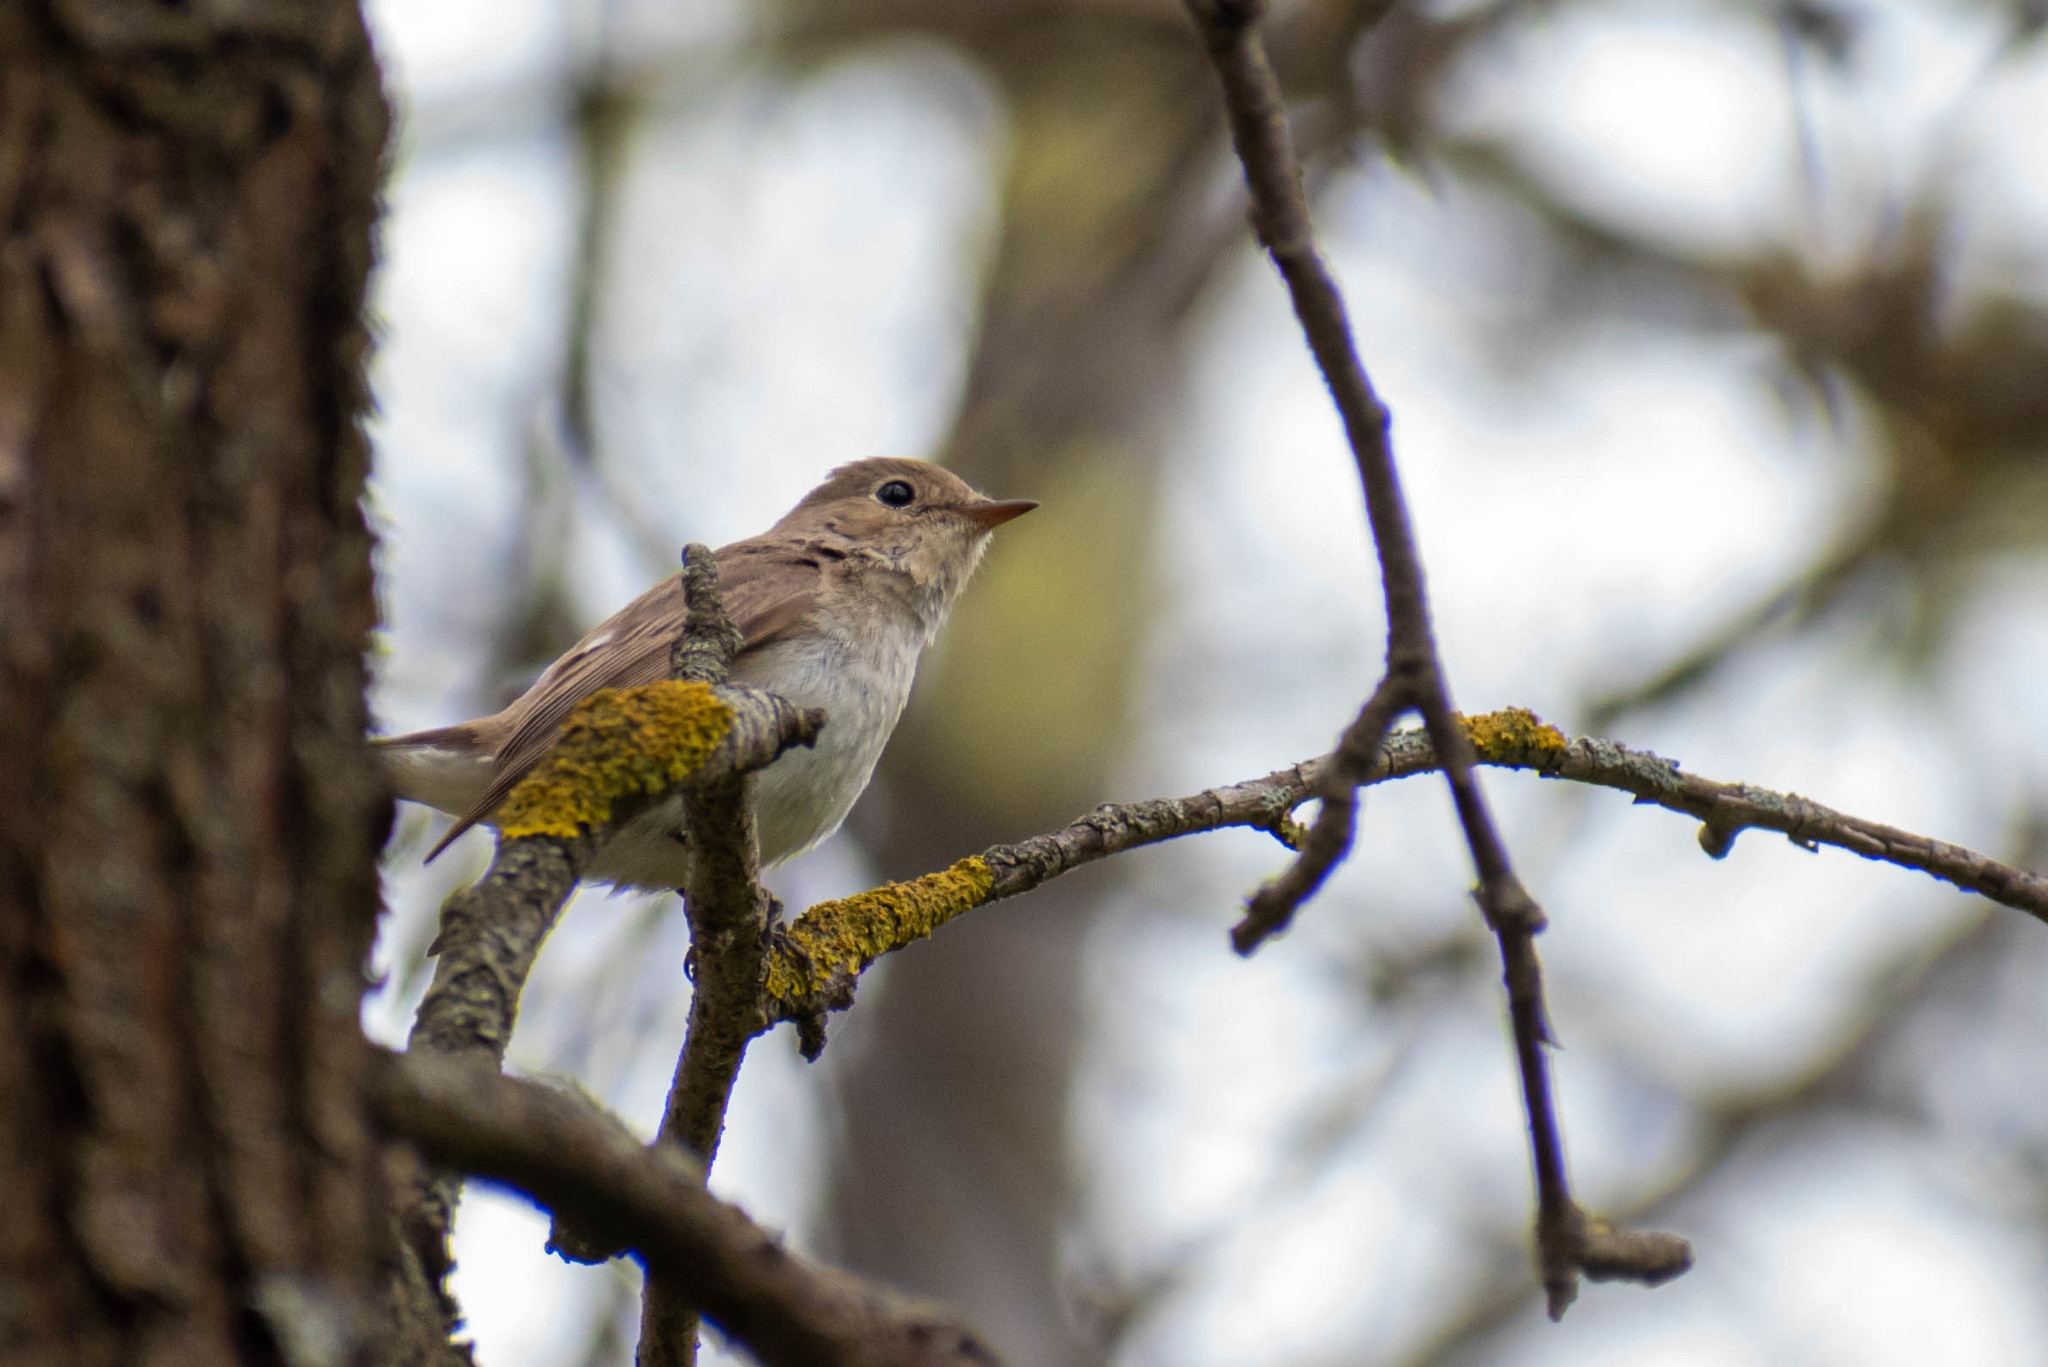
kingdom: Animalia
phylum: Chordata
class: Aves
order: Passeriformes
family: Muscicapidae
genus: Ficedula
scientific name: Ficedula parva
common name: Red-breasted flycatcher
